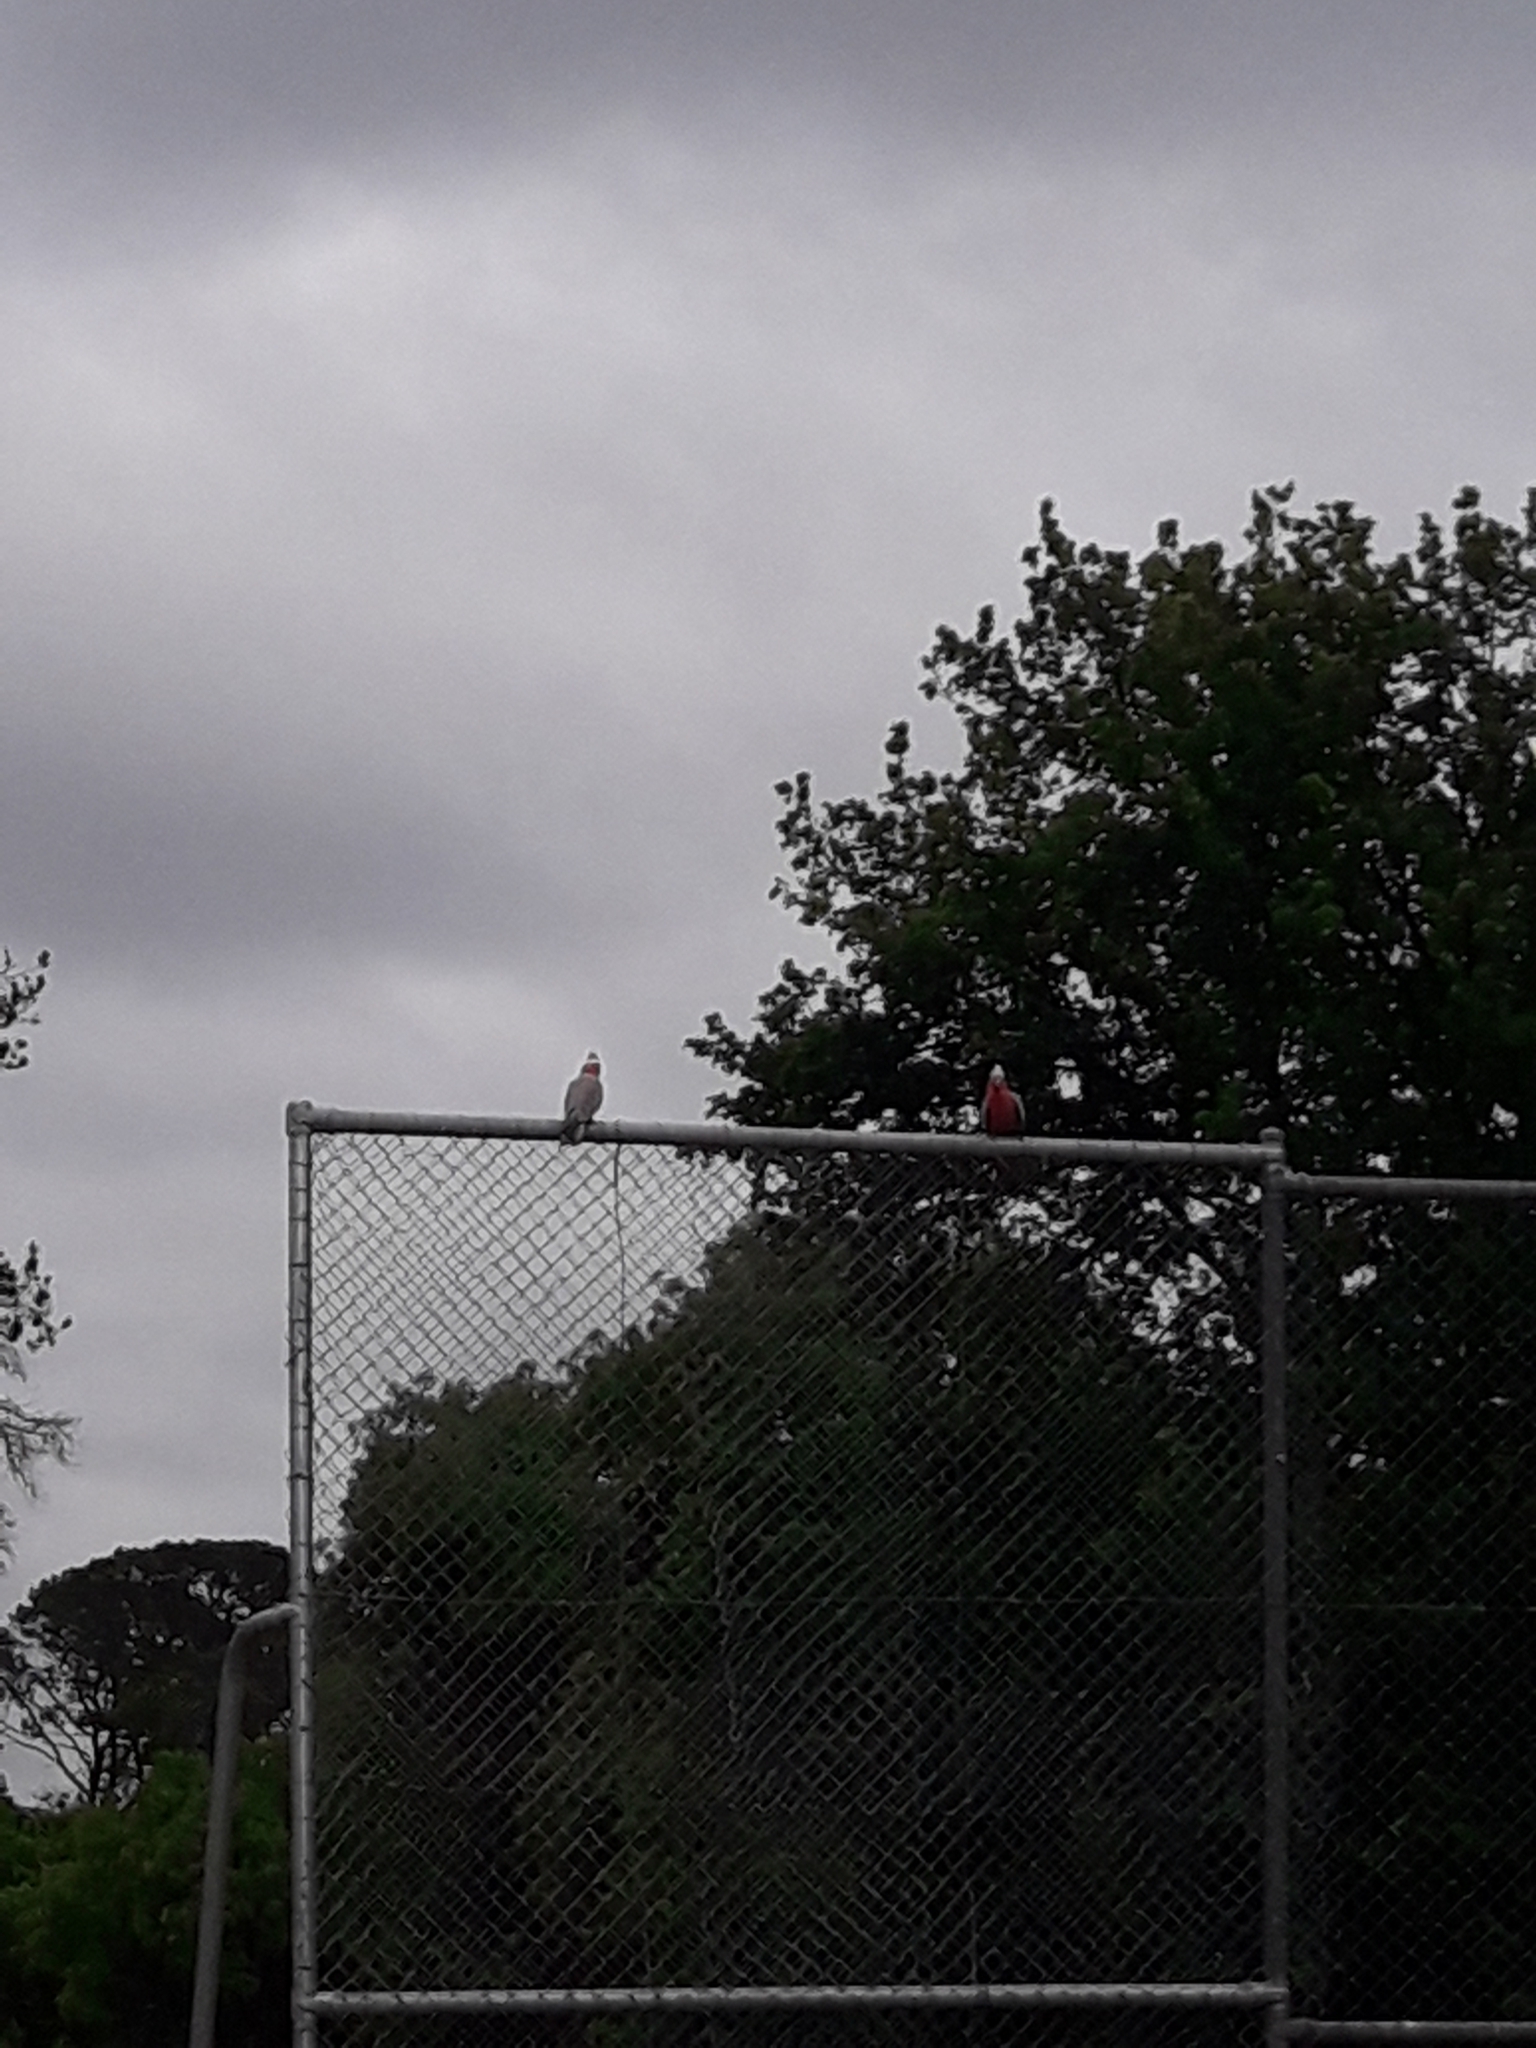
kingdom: Animalia
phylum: Chordata
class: Aves
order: Psittaciformes
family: Psittacidae
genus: Eolophus
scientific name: Eolophus roseicapilla
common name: Galah
